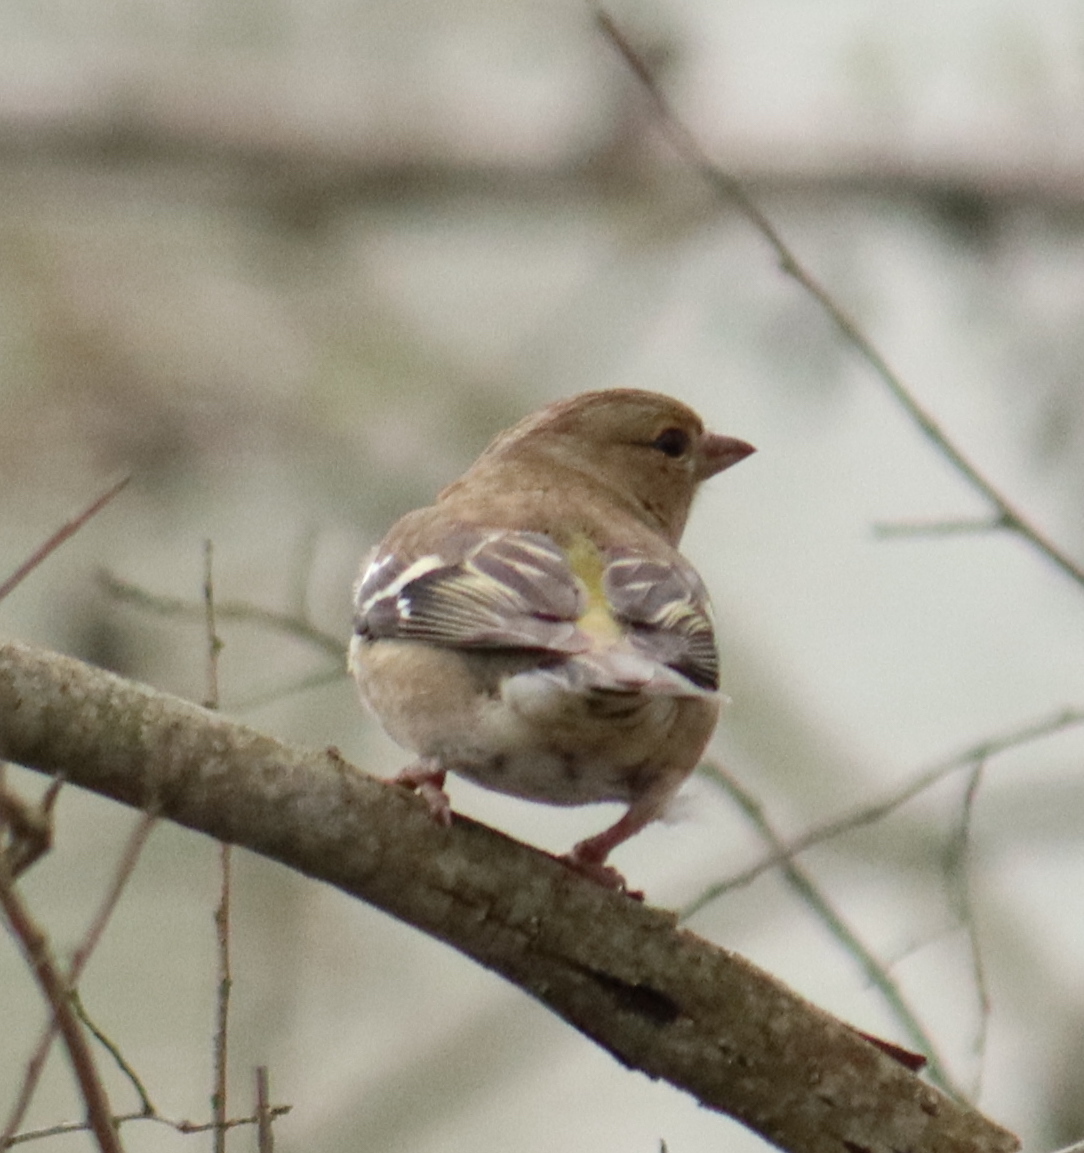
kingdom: Animalia
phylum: Chordata
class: Aves
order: Passeriformes
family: Fringillidae
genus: Fringilla
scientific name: Fringilla coelebs
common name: Common chaffinch
